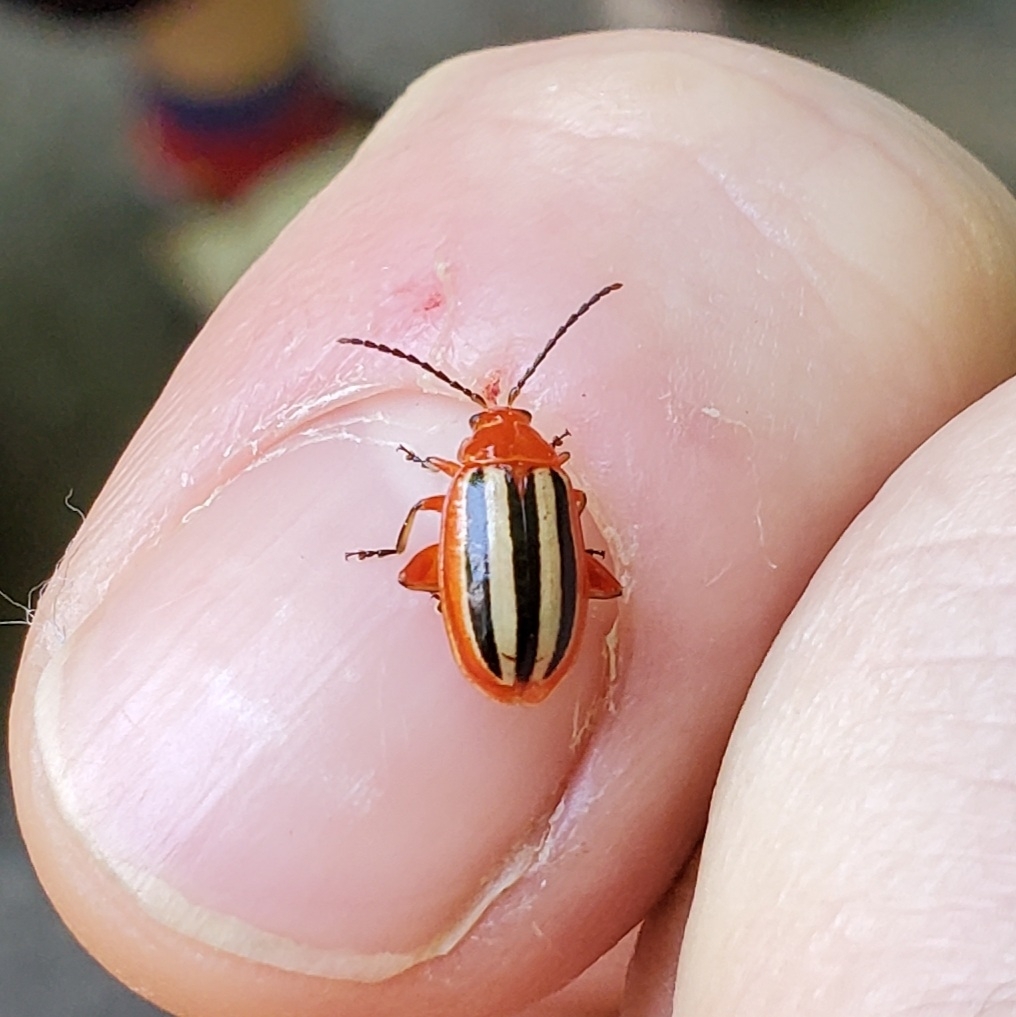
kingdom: Animalia
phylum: Arthropoda
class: Insecta
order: Coleoptera
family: Chrysomelidae
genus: Disonycha
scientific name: Disonycha discoidea
